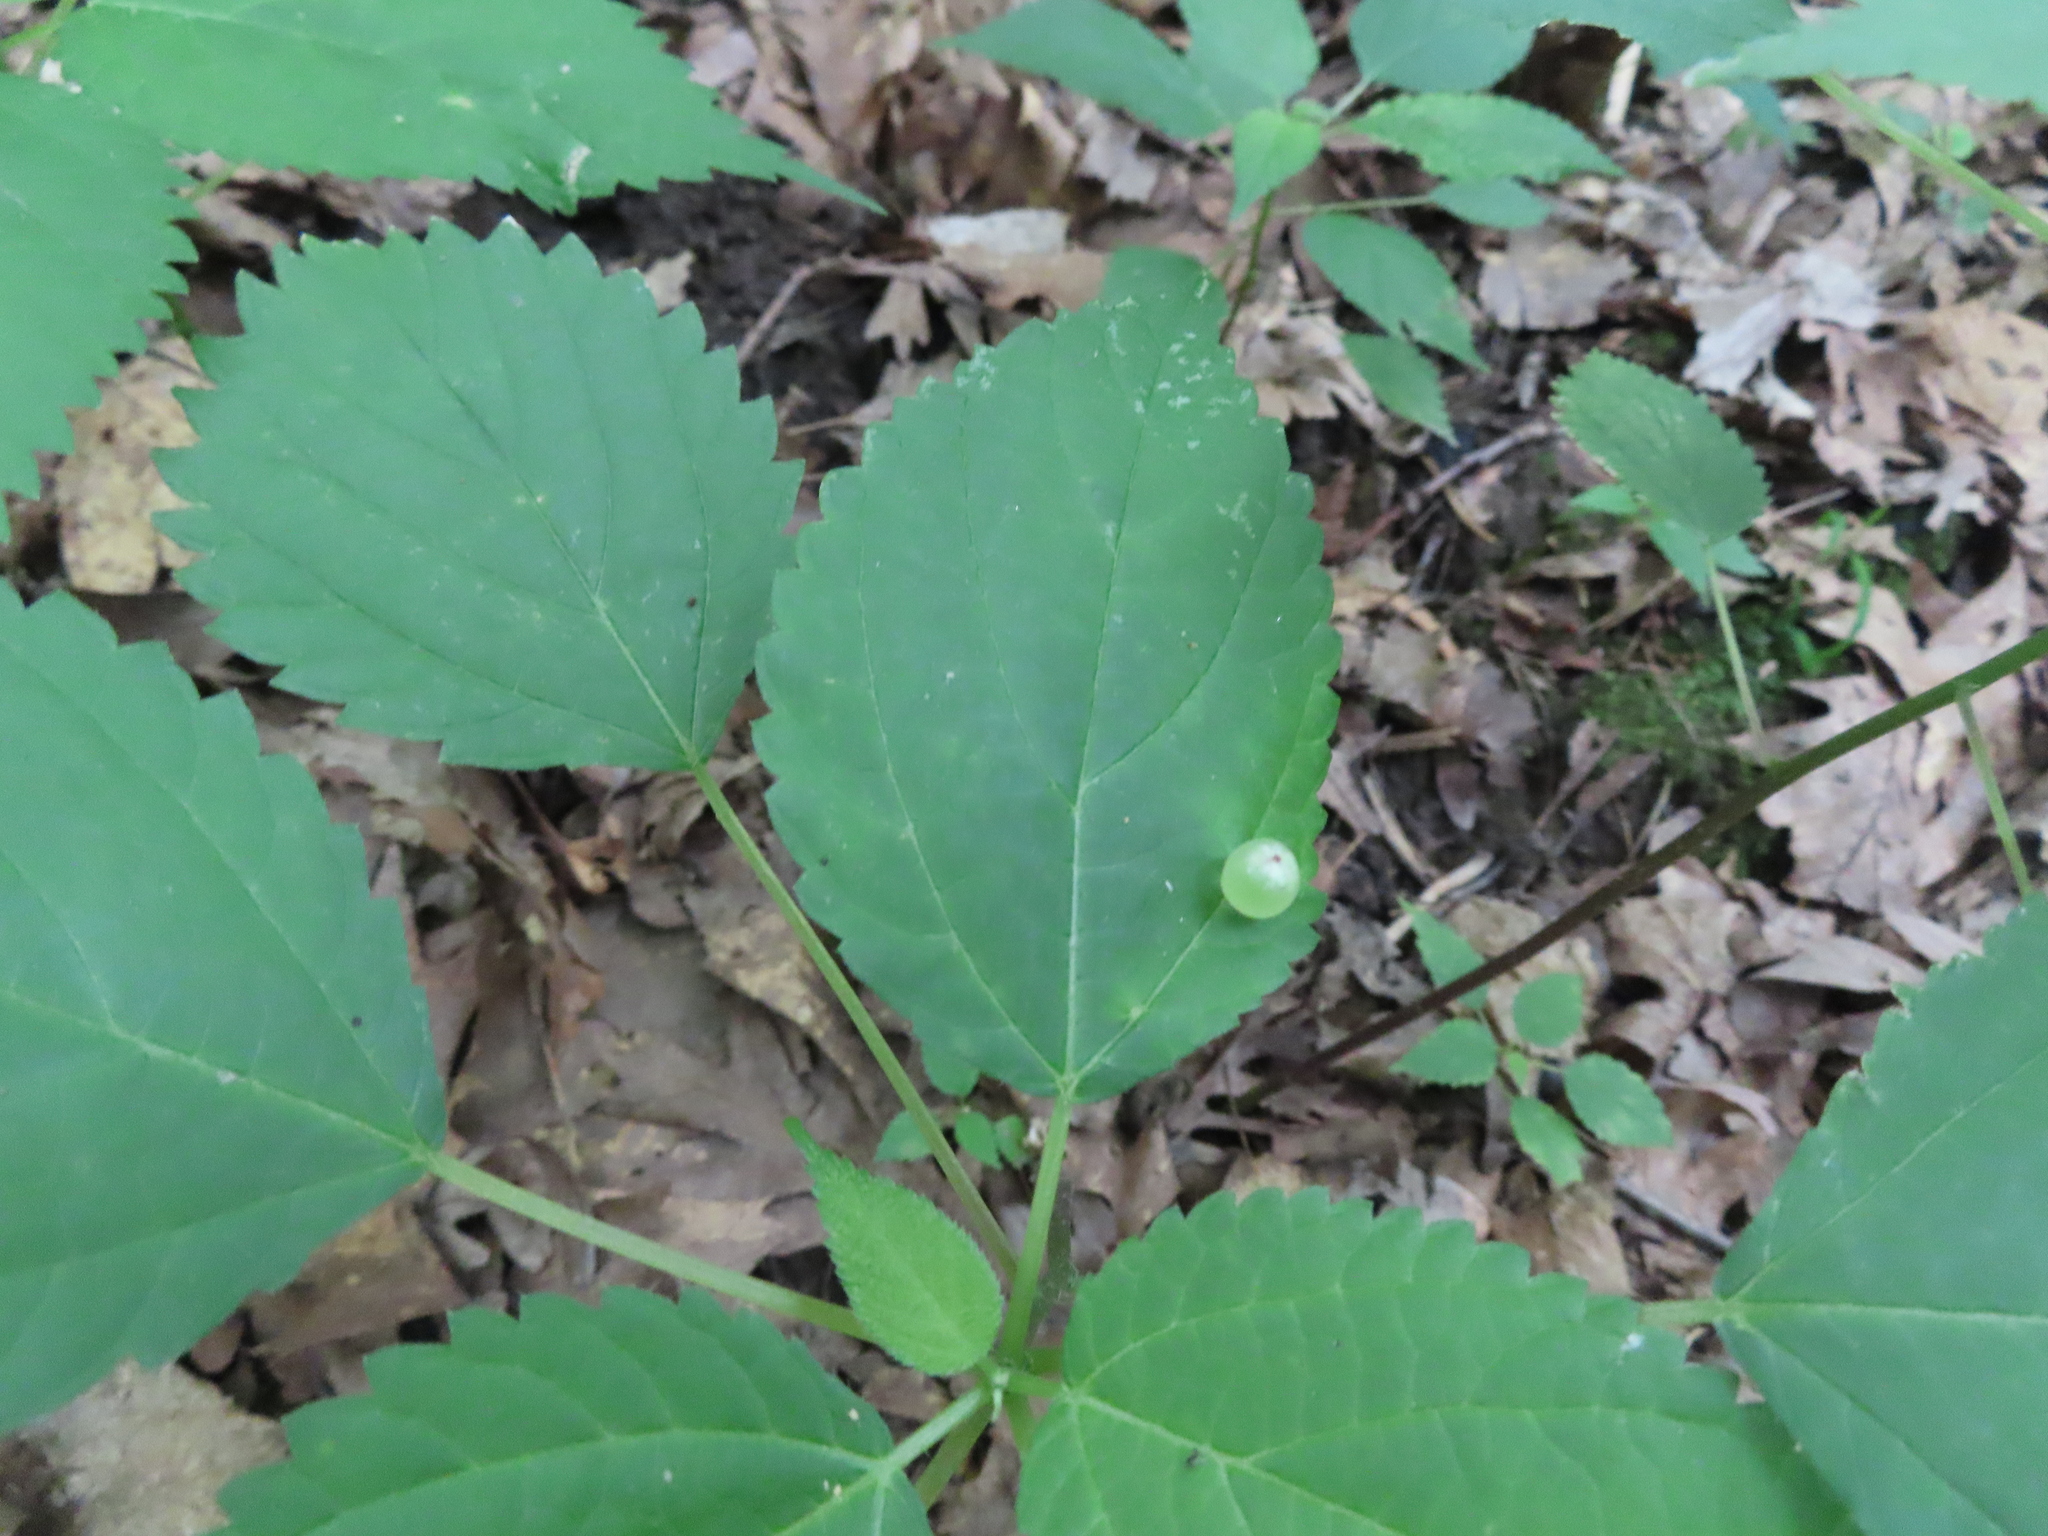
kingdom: Animalia
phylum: Arthropoda
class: Insecta
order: Diptera
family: Cecidomyiidae
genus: Dasineura
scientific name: Dasineura investita
